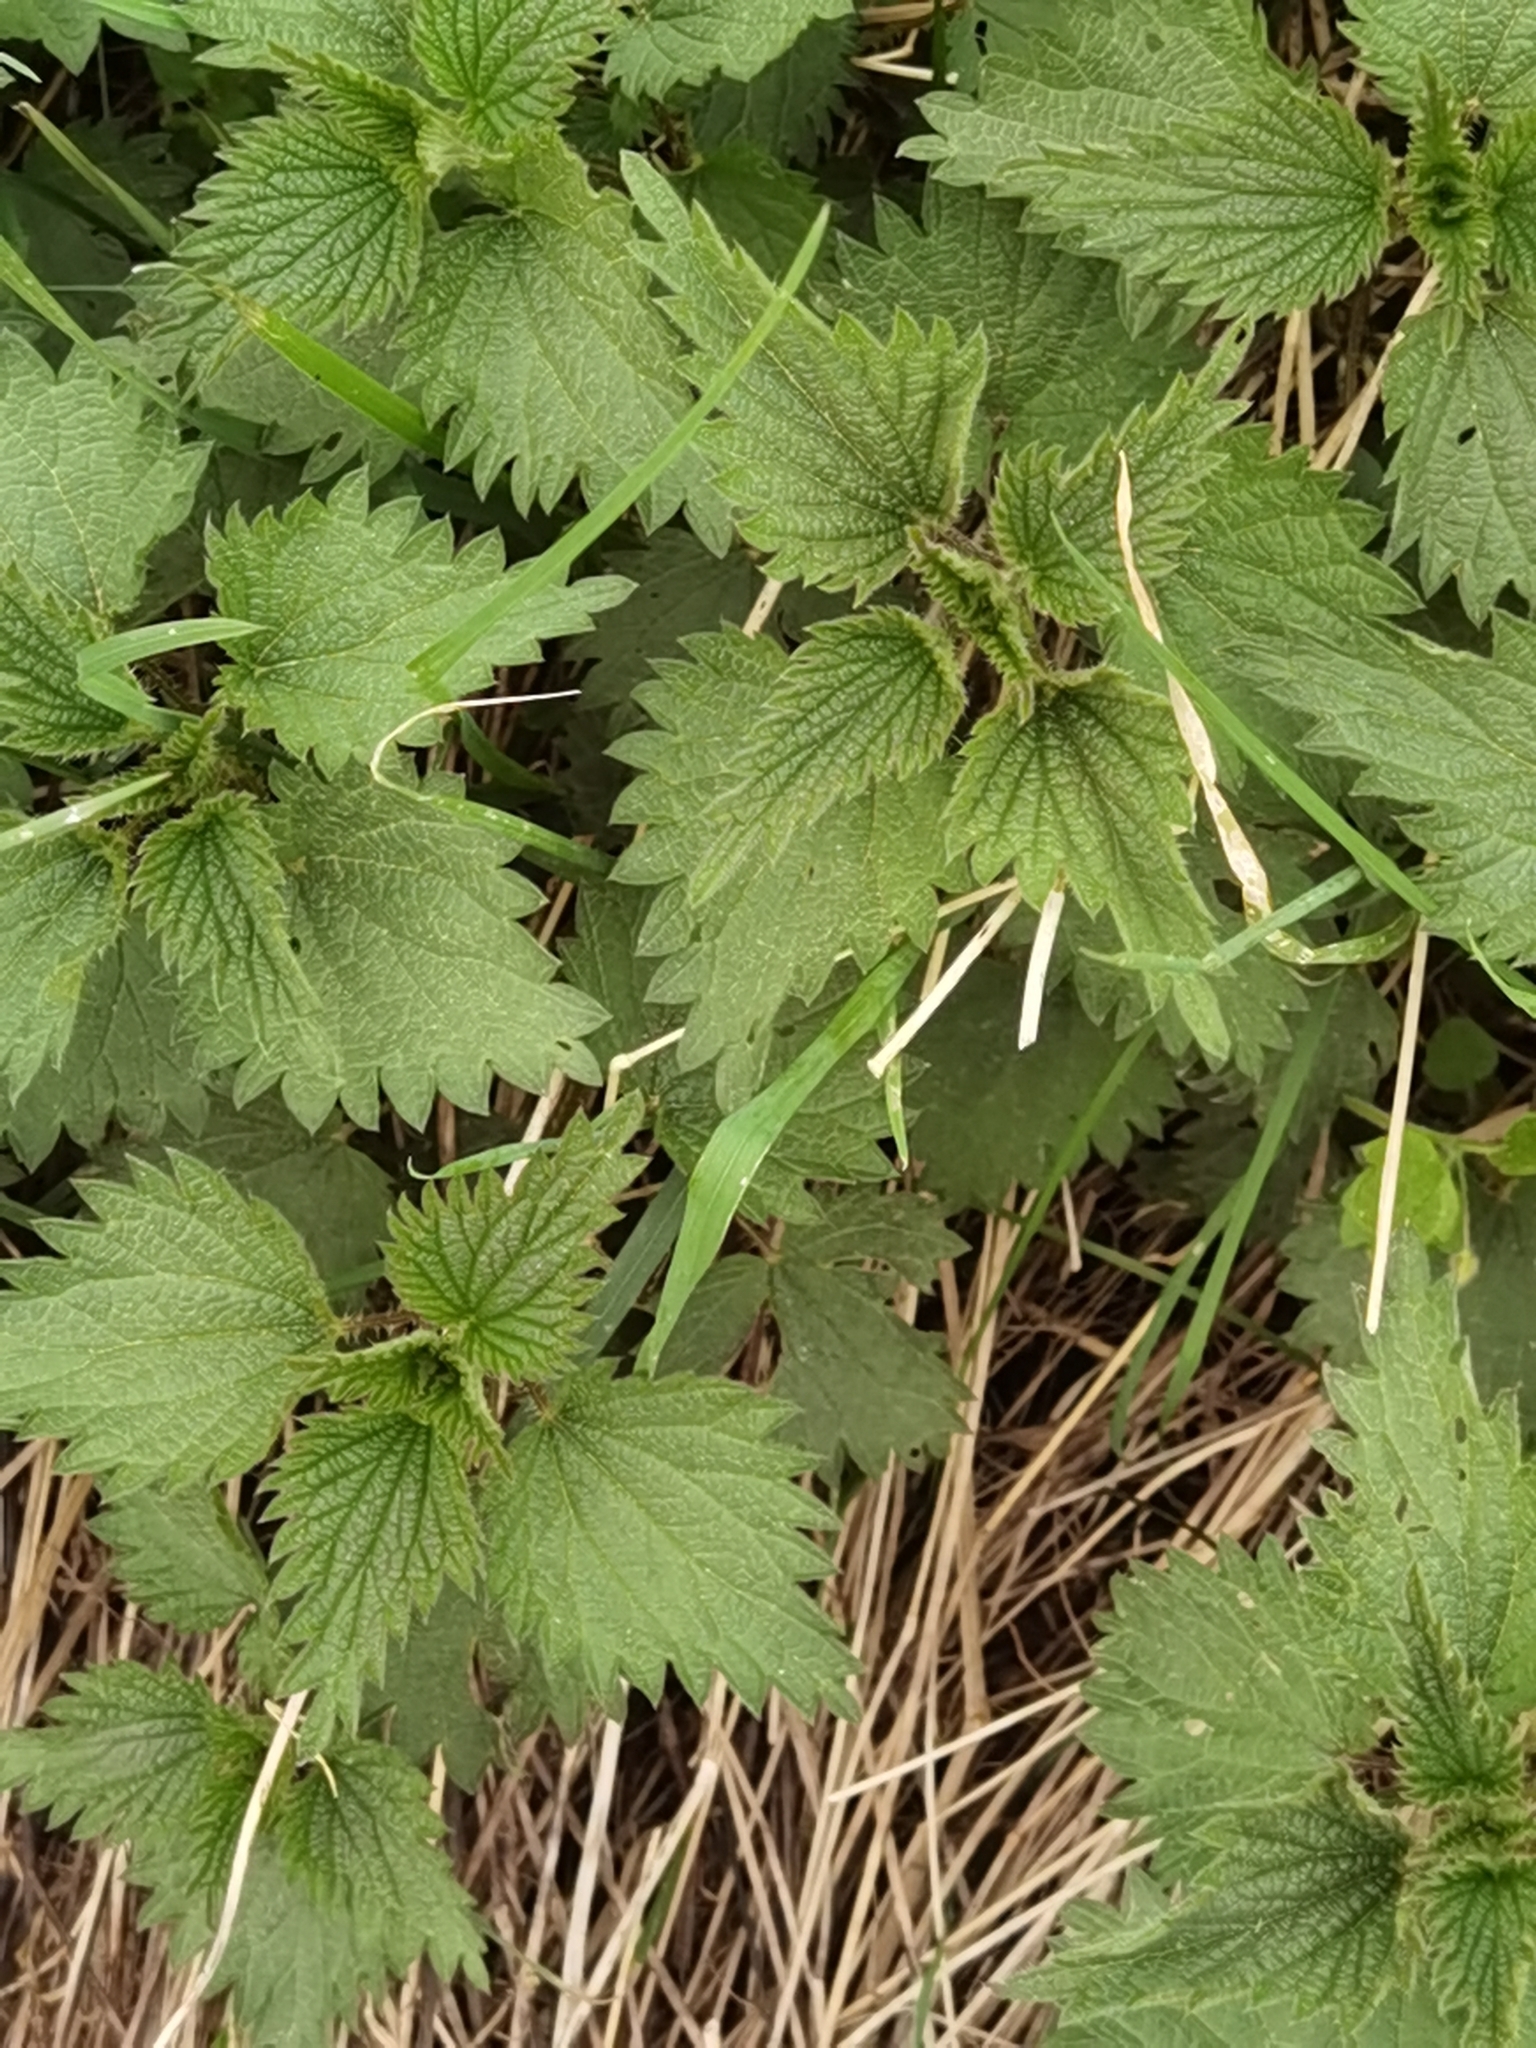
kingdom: Plantae
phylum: Tracheophyta
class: Magnoliopsida
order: Rosales
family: Urticaceae
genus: Urtica
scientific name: Urtica dioica
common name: Common nettle
